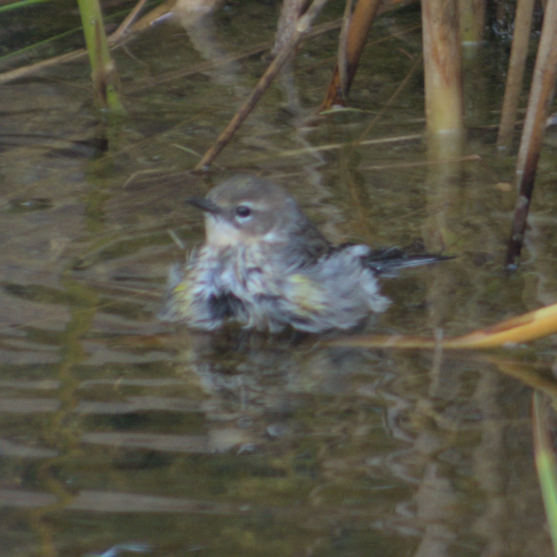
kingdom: Animalia
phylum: Chordata
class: Aves
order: Passeriformes
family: Parulidae
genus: Setophaga
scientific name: Setophaga coronata
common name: Myrtle warbler
